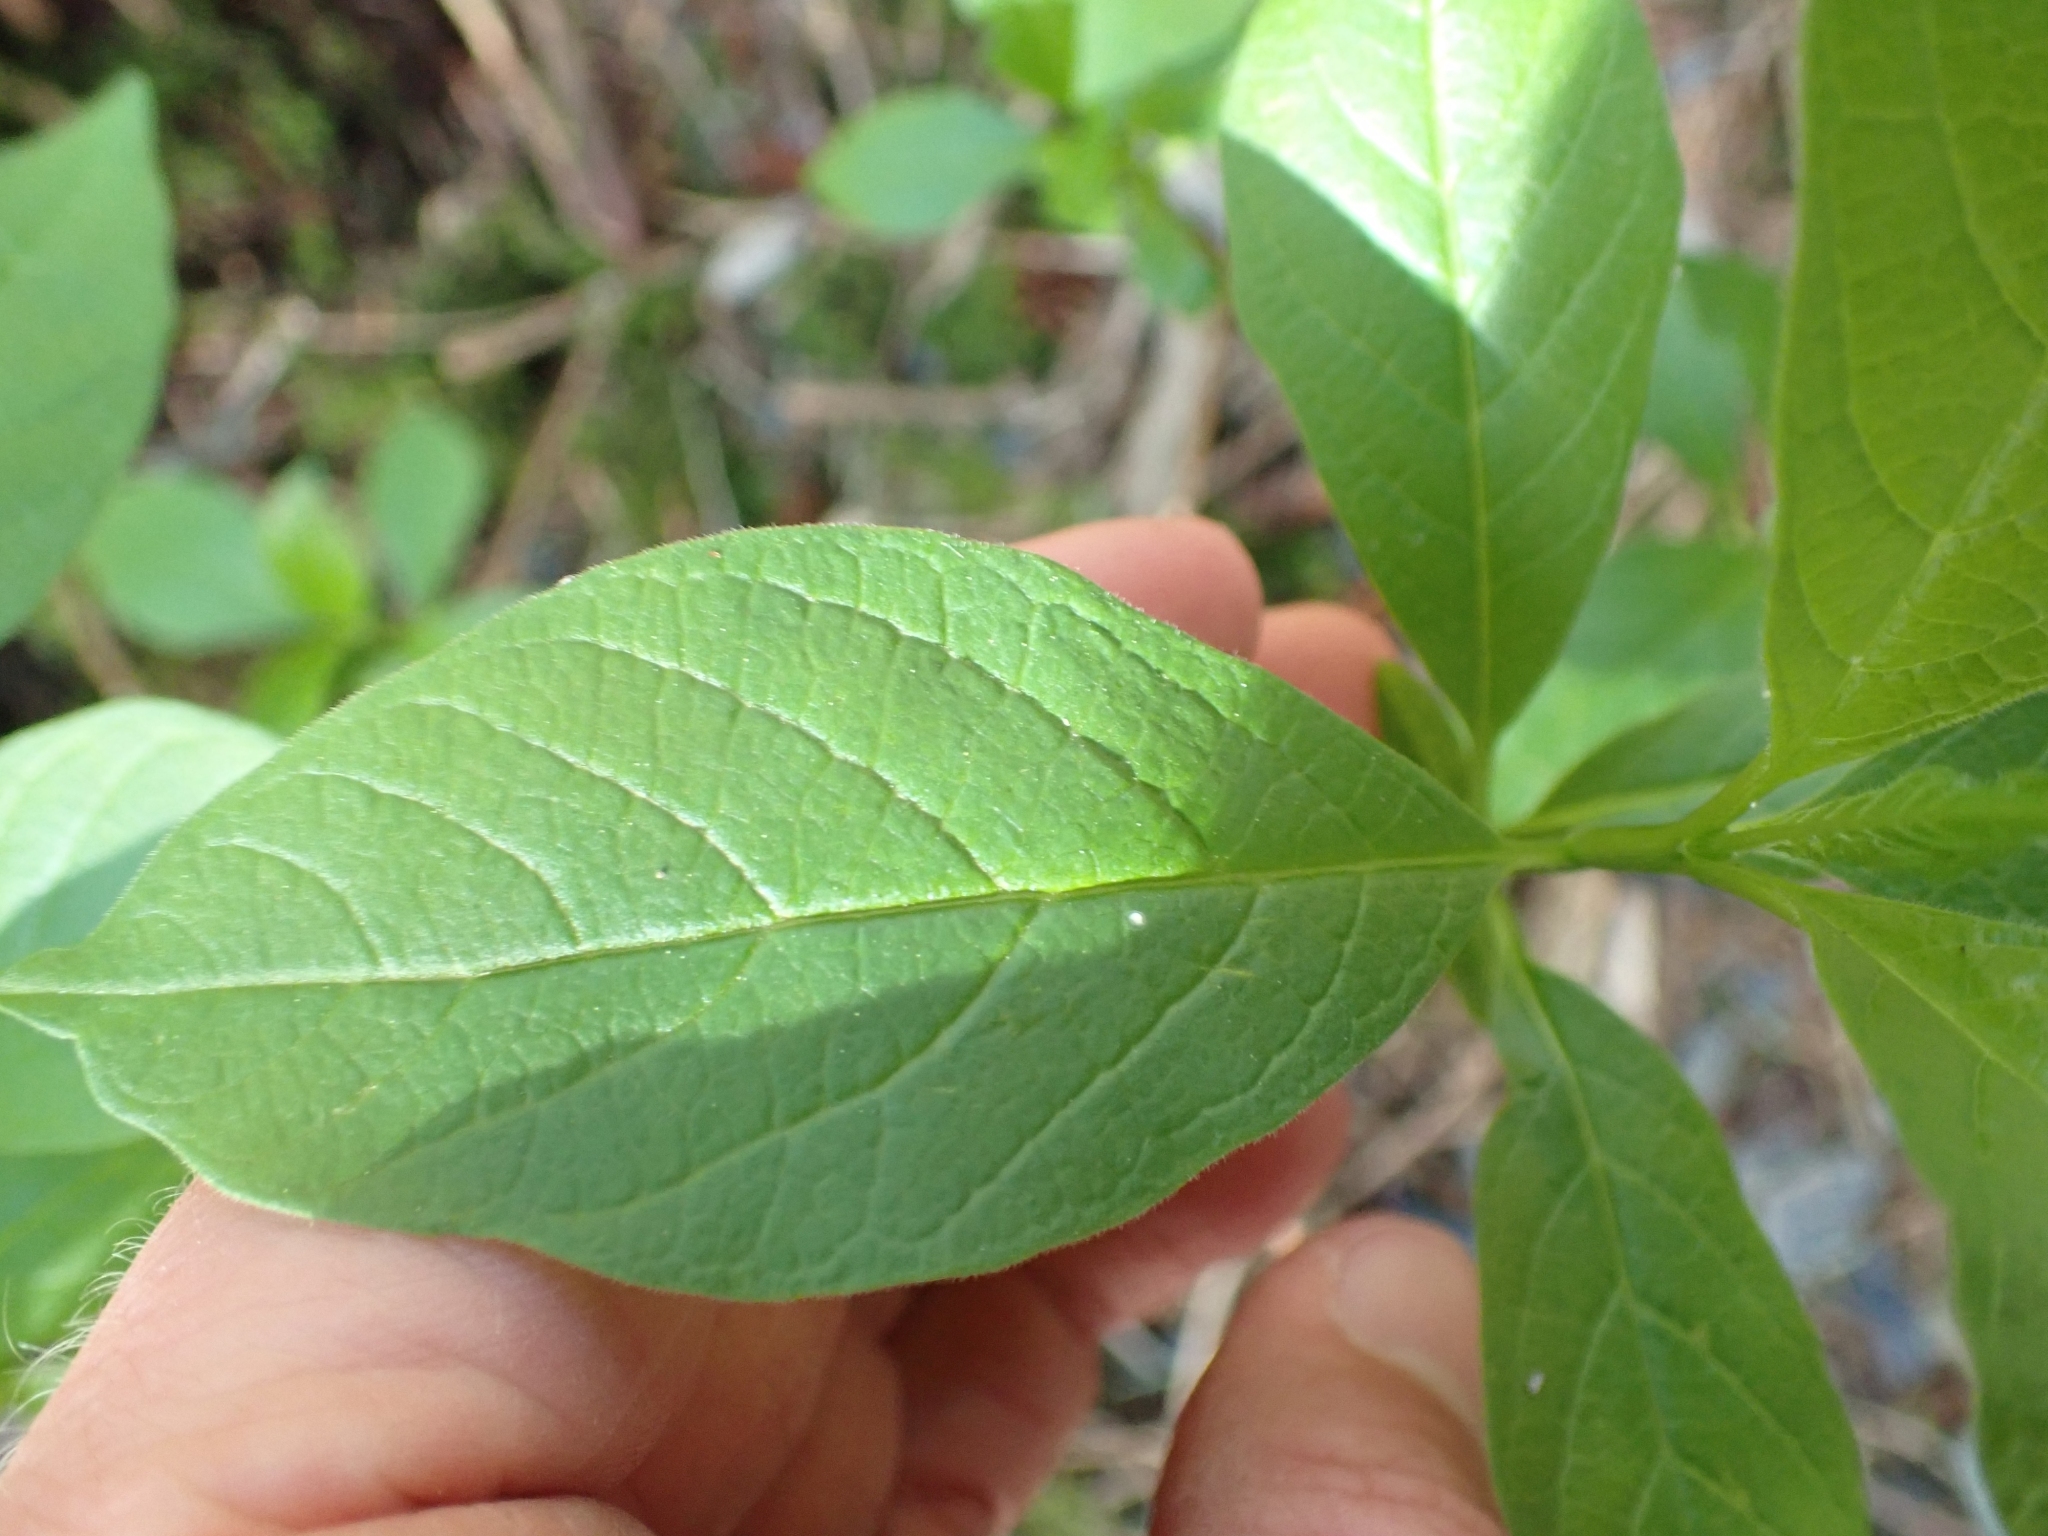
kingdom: Plantae
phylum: Tracheophyta
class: Magnoliopsida
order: Dipsacales
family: Caprifoliaceae
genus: Lonicera
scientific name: Lonicera involucrata
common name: Californian honeysuckle
